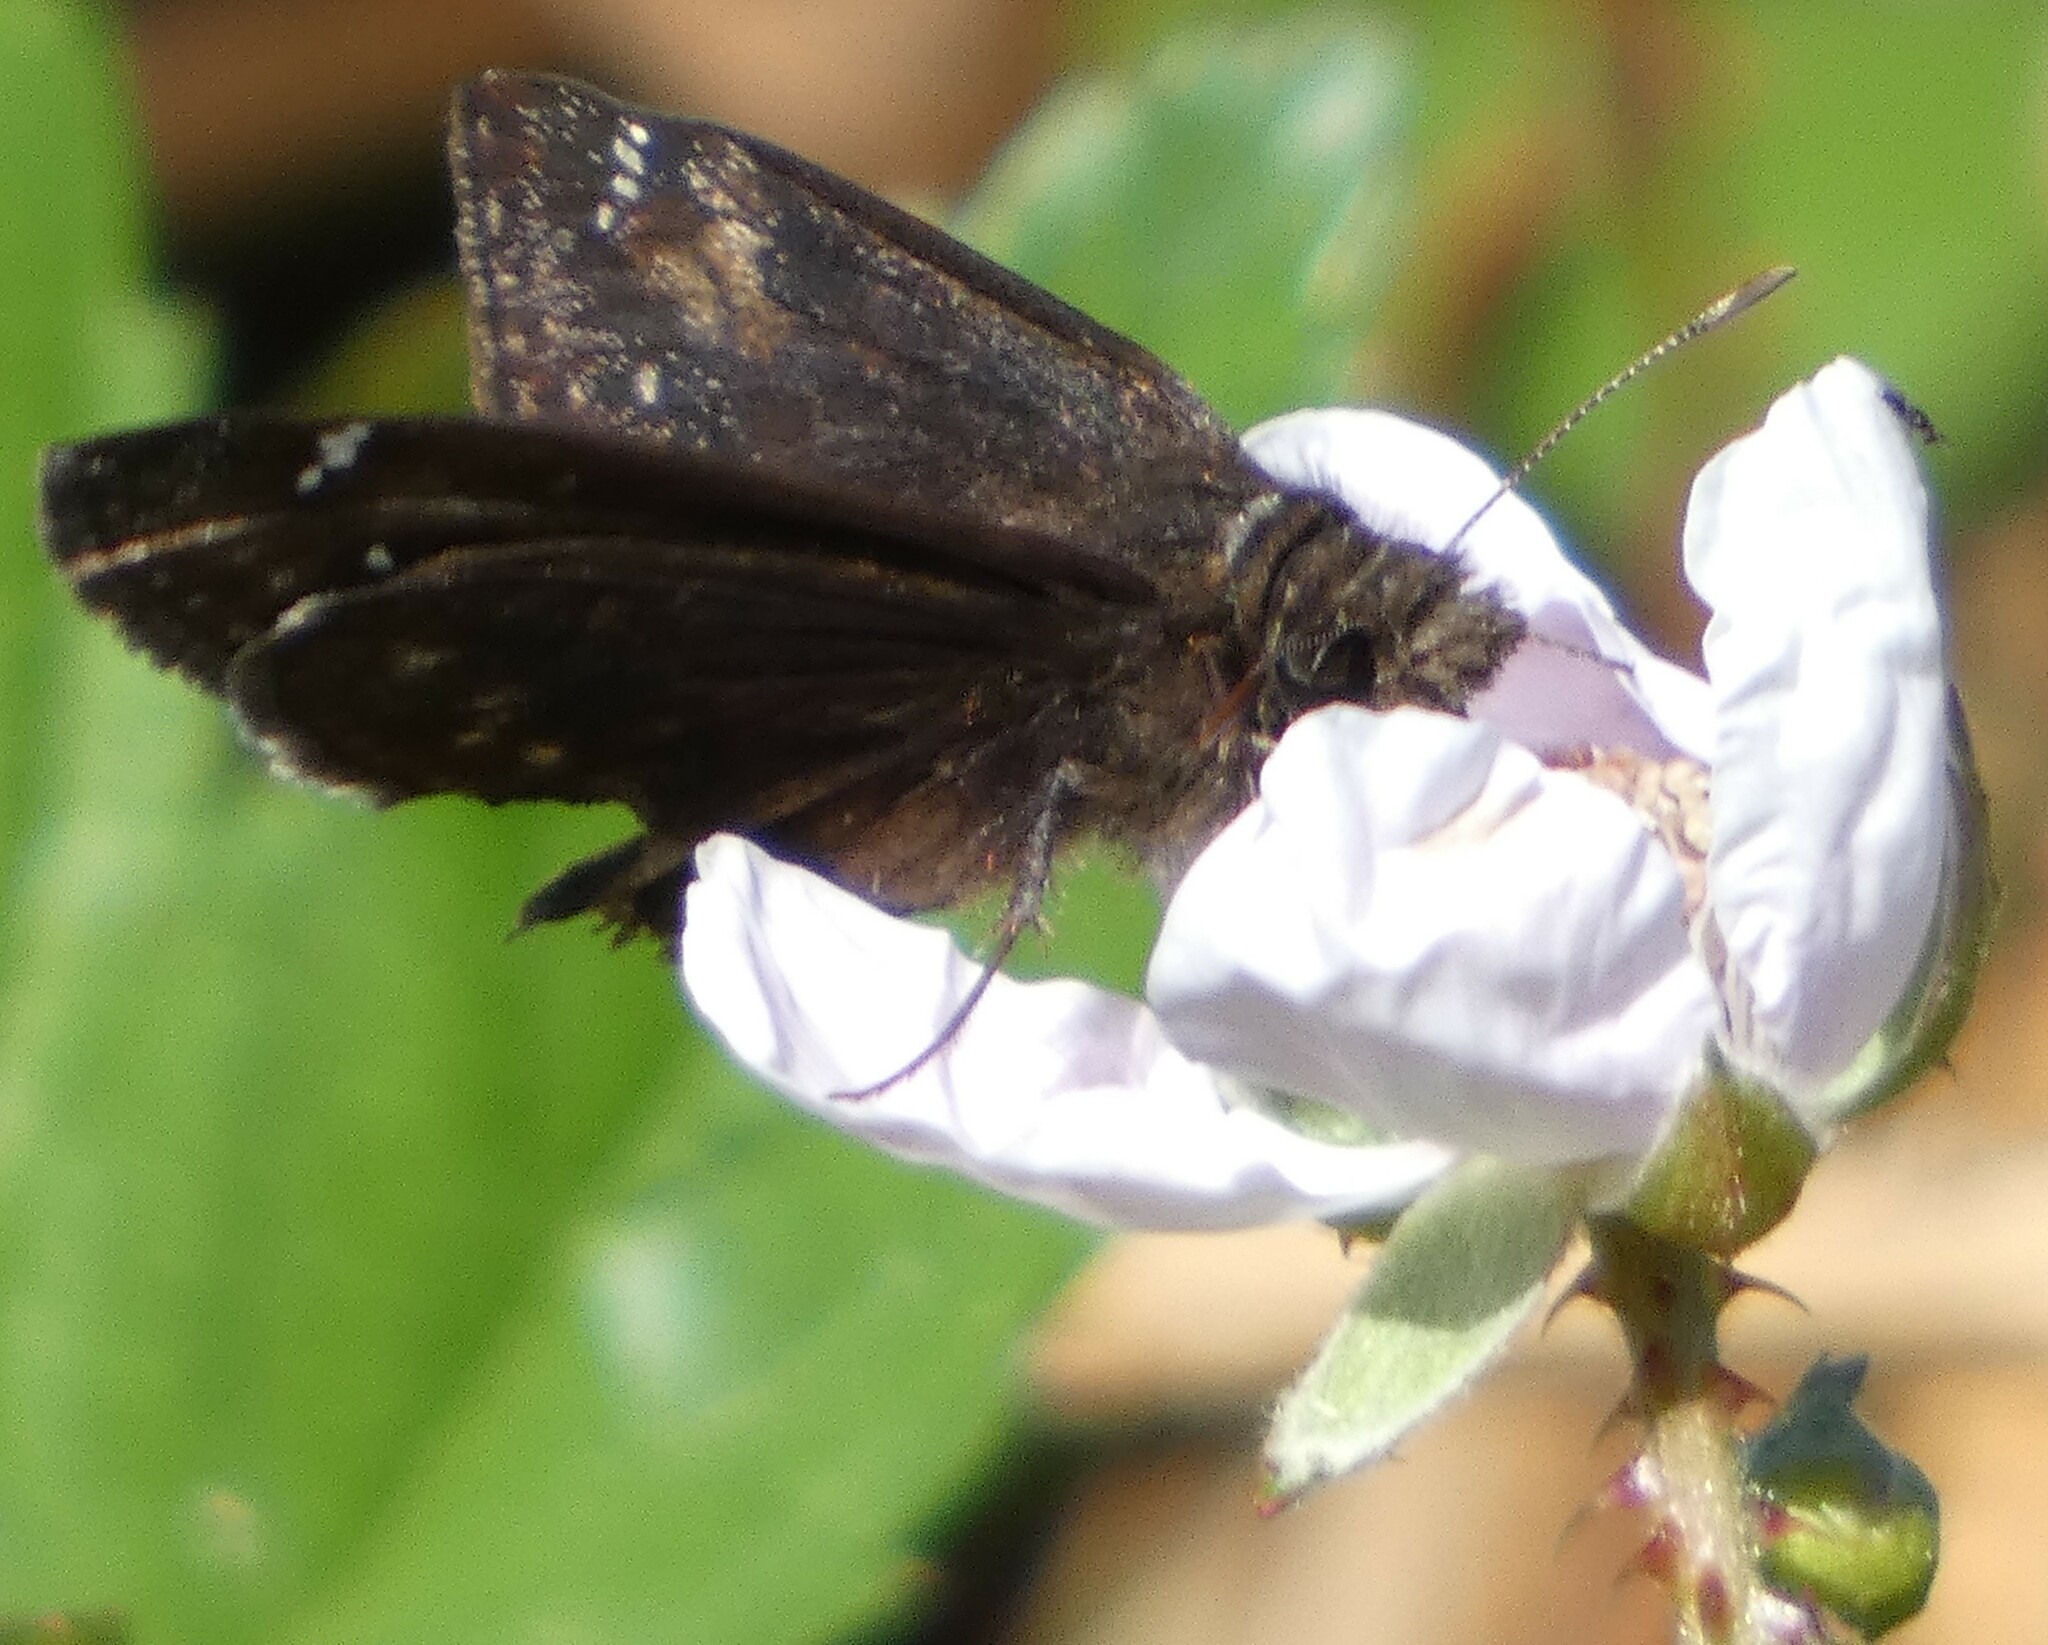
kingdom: Animalia
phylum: Arthropoda
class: Insecta
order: Lepidoptera
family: Hesperiidae
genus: Erynnis
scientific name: Erynnis zarucco
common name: Zarucco duskywing
